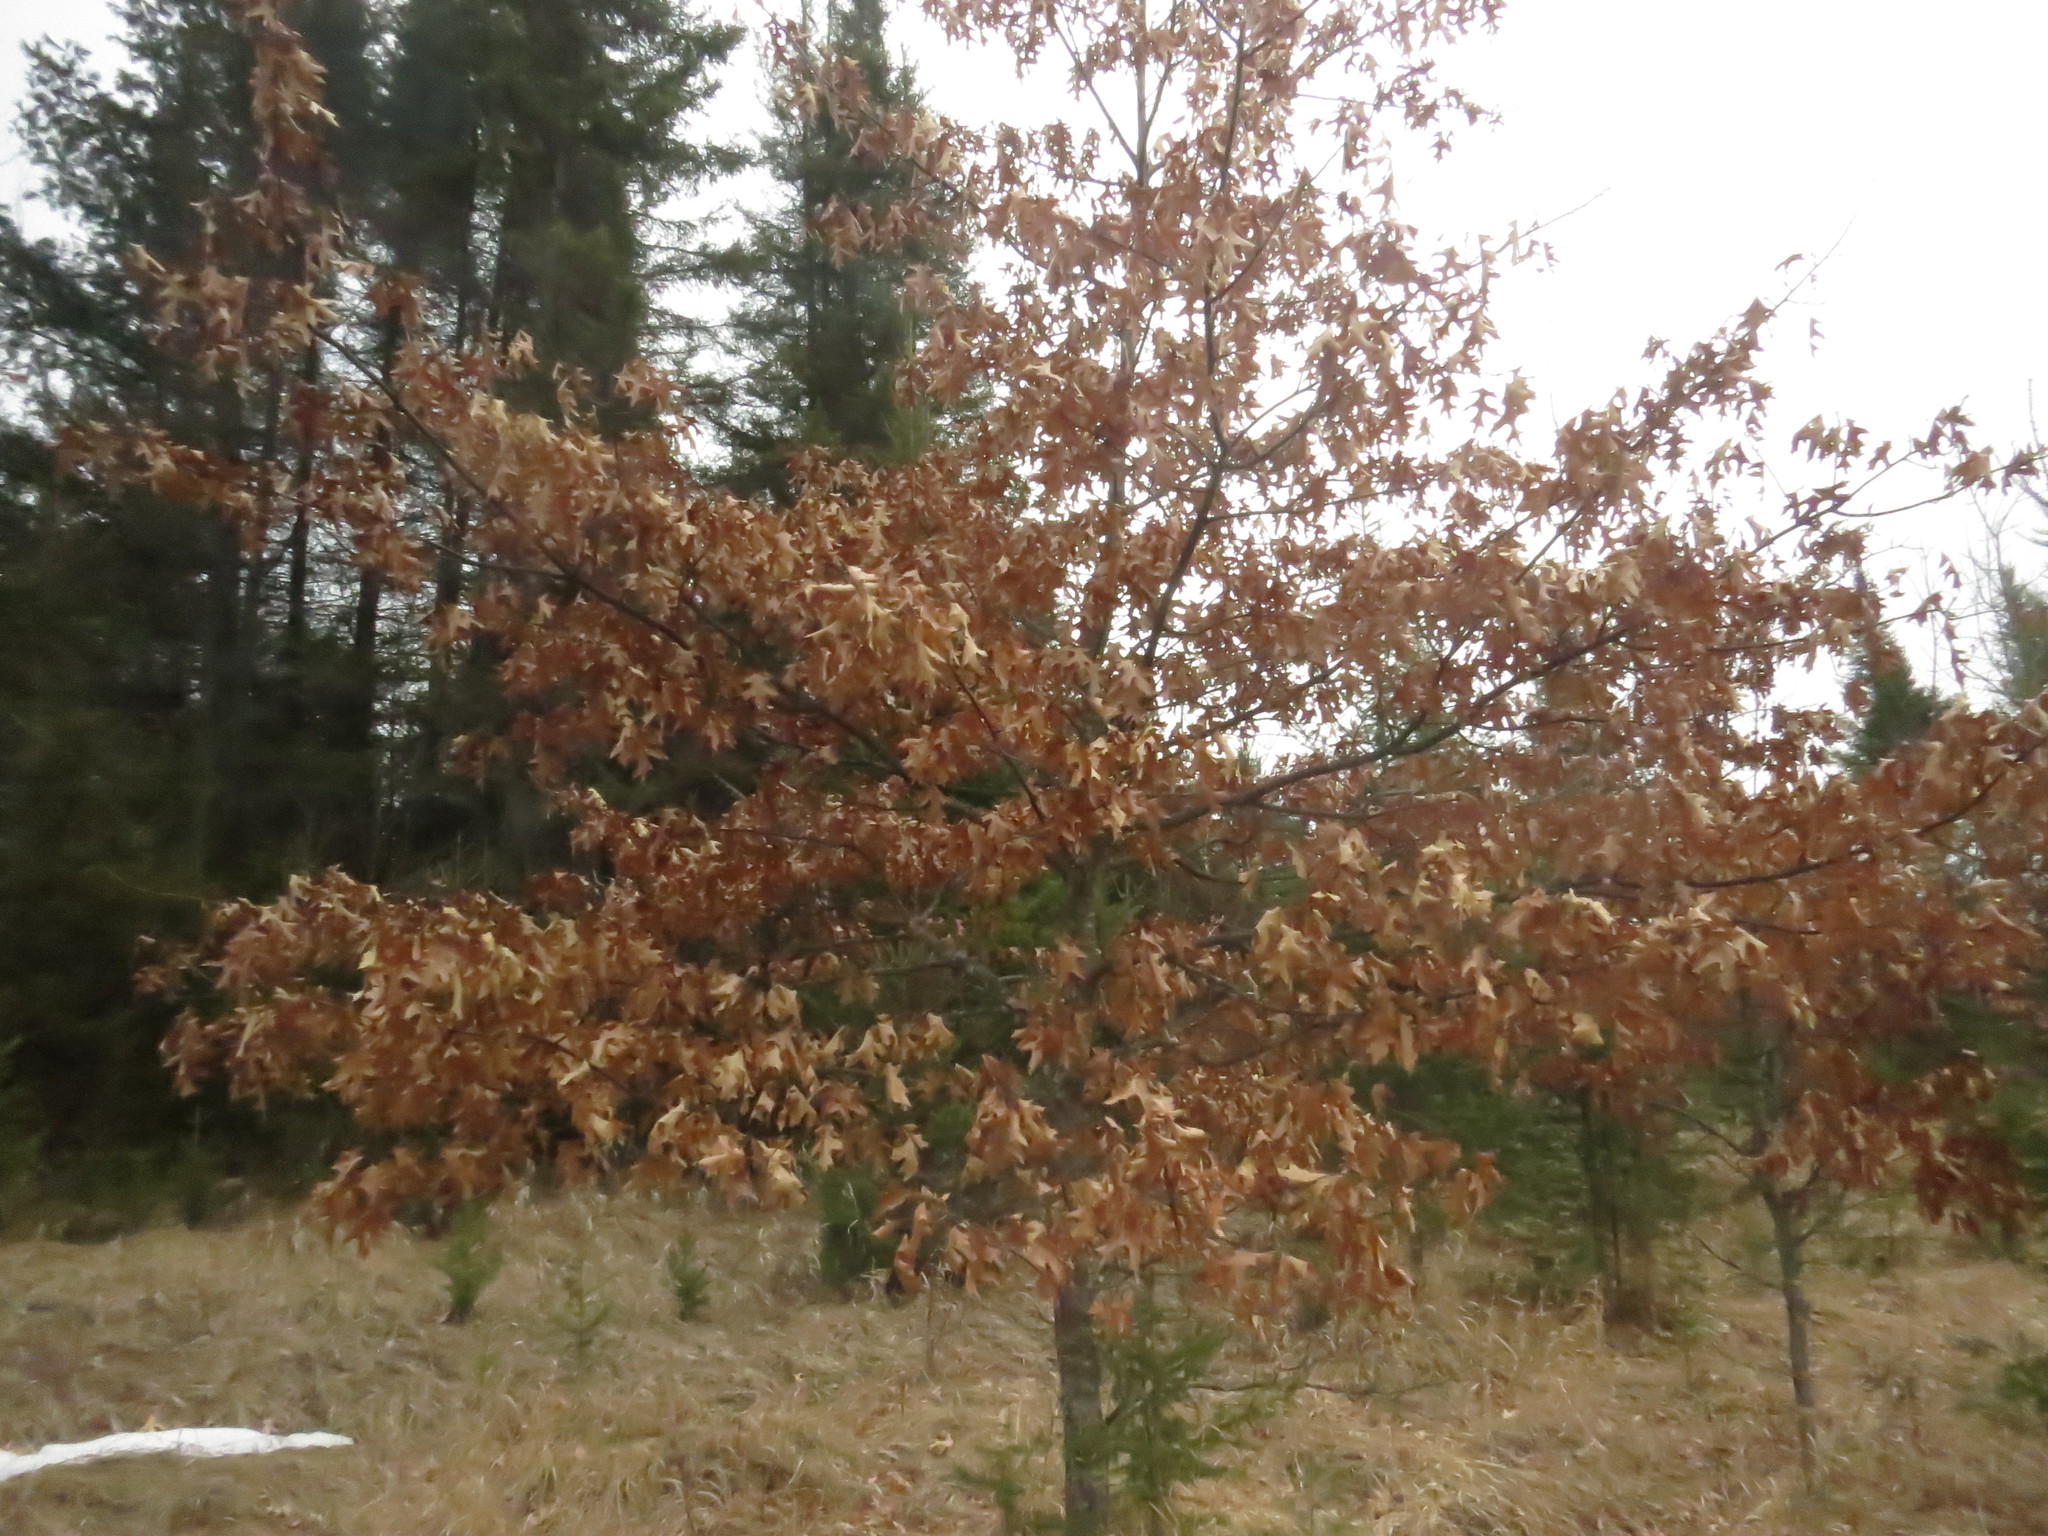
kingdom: Plantae
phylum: Tracheophyta
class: Magnoliopsida
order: Fagales
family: Fagaceae
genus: Quercus
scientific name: Quercus rubra
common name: Red oak
